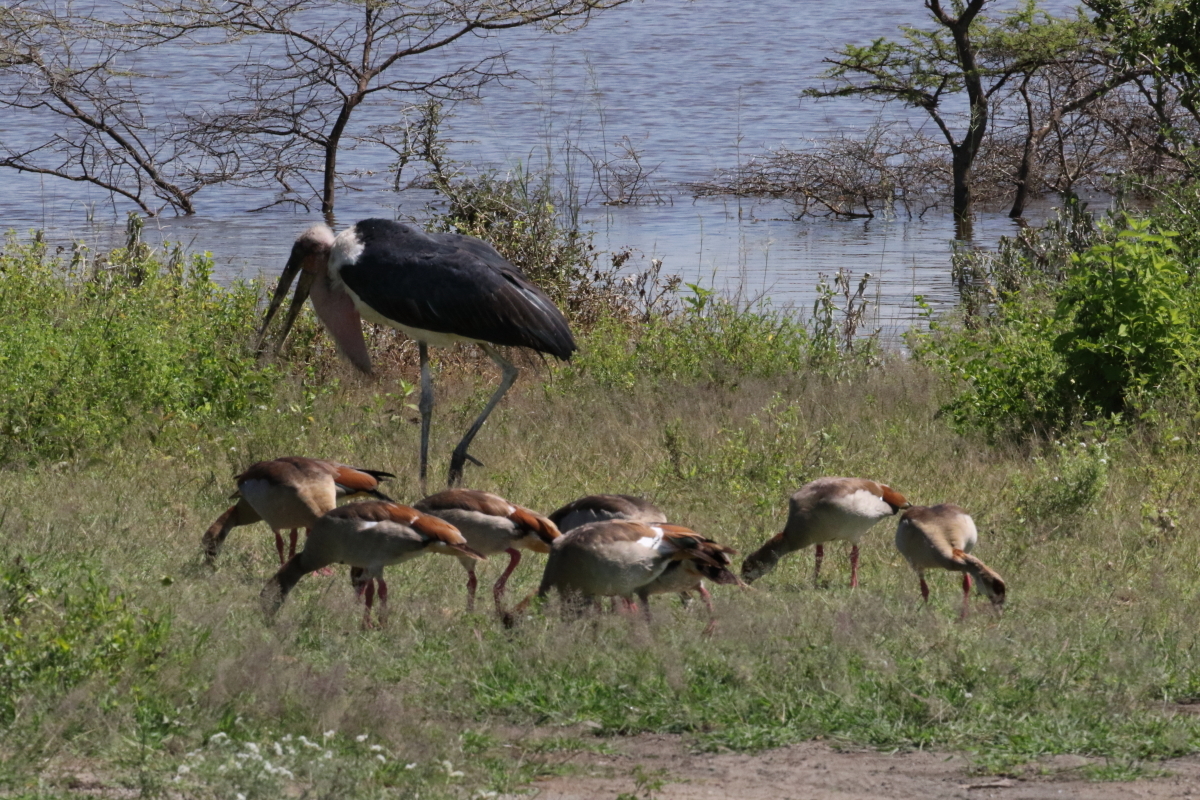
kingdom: Animalia
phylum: Chordata
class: Aves
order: Ciconiiformes
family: Ciconiidae
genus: Leptoptilos
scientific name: Leptoptilos crumenifer
